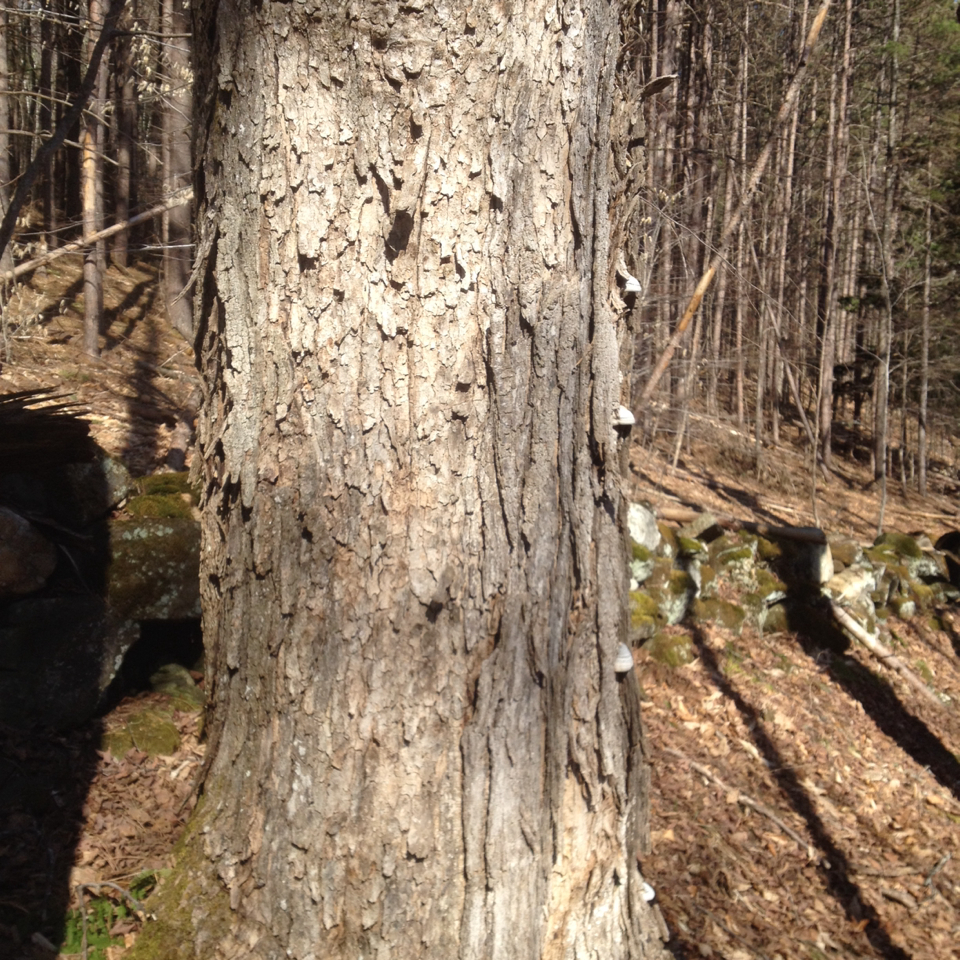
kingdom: Plantae
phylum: Tracheophyta
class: Magnoliopsida
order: Sapindales
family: Sapindaceae
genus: Acer
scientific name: Acer saccharum
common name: Sugar maple
